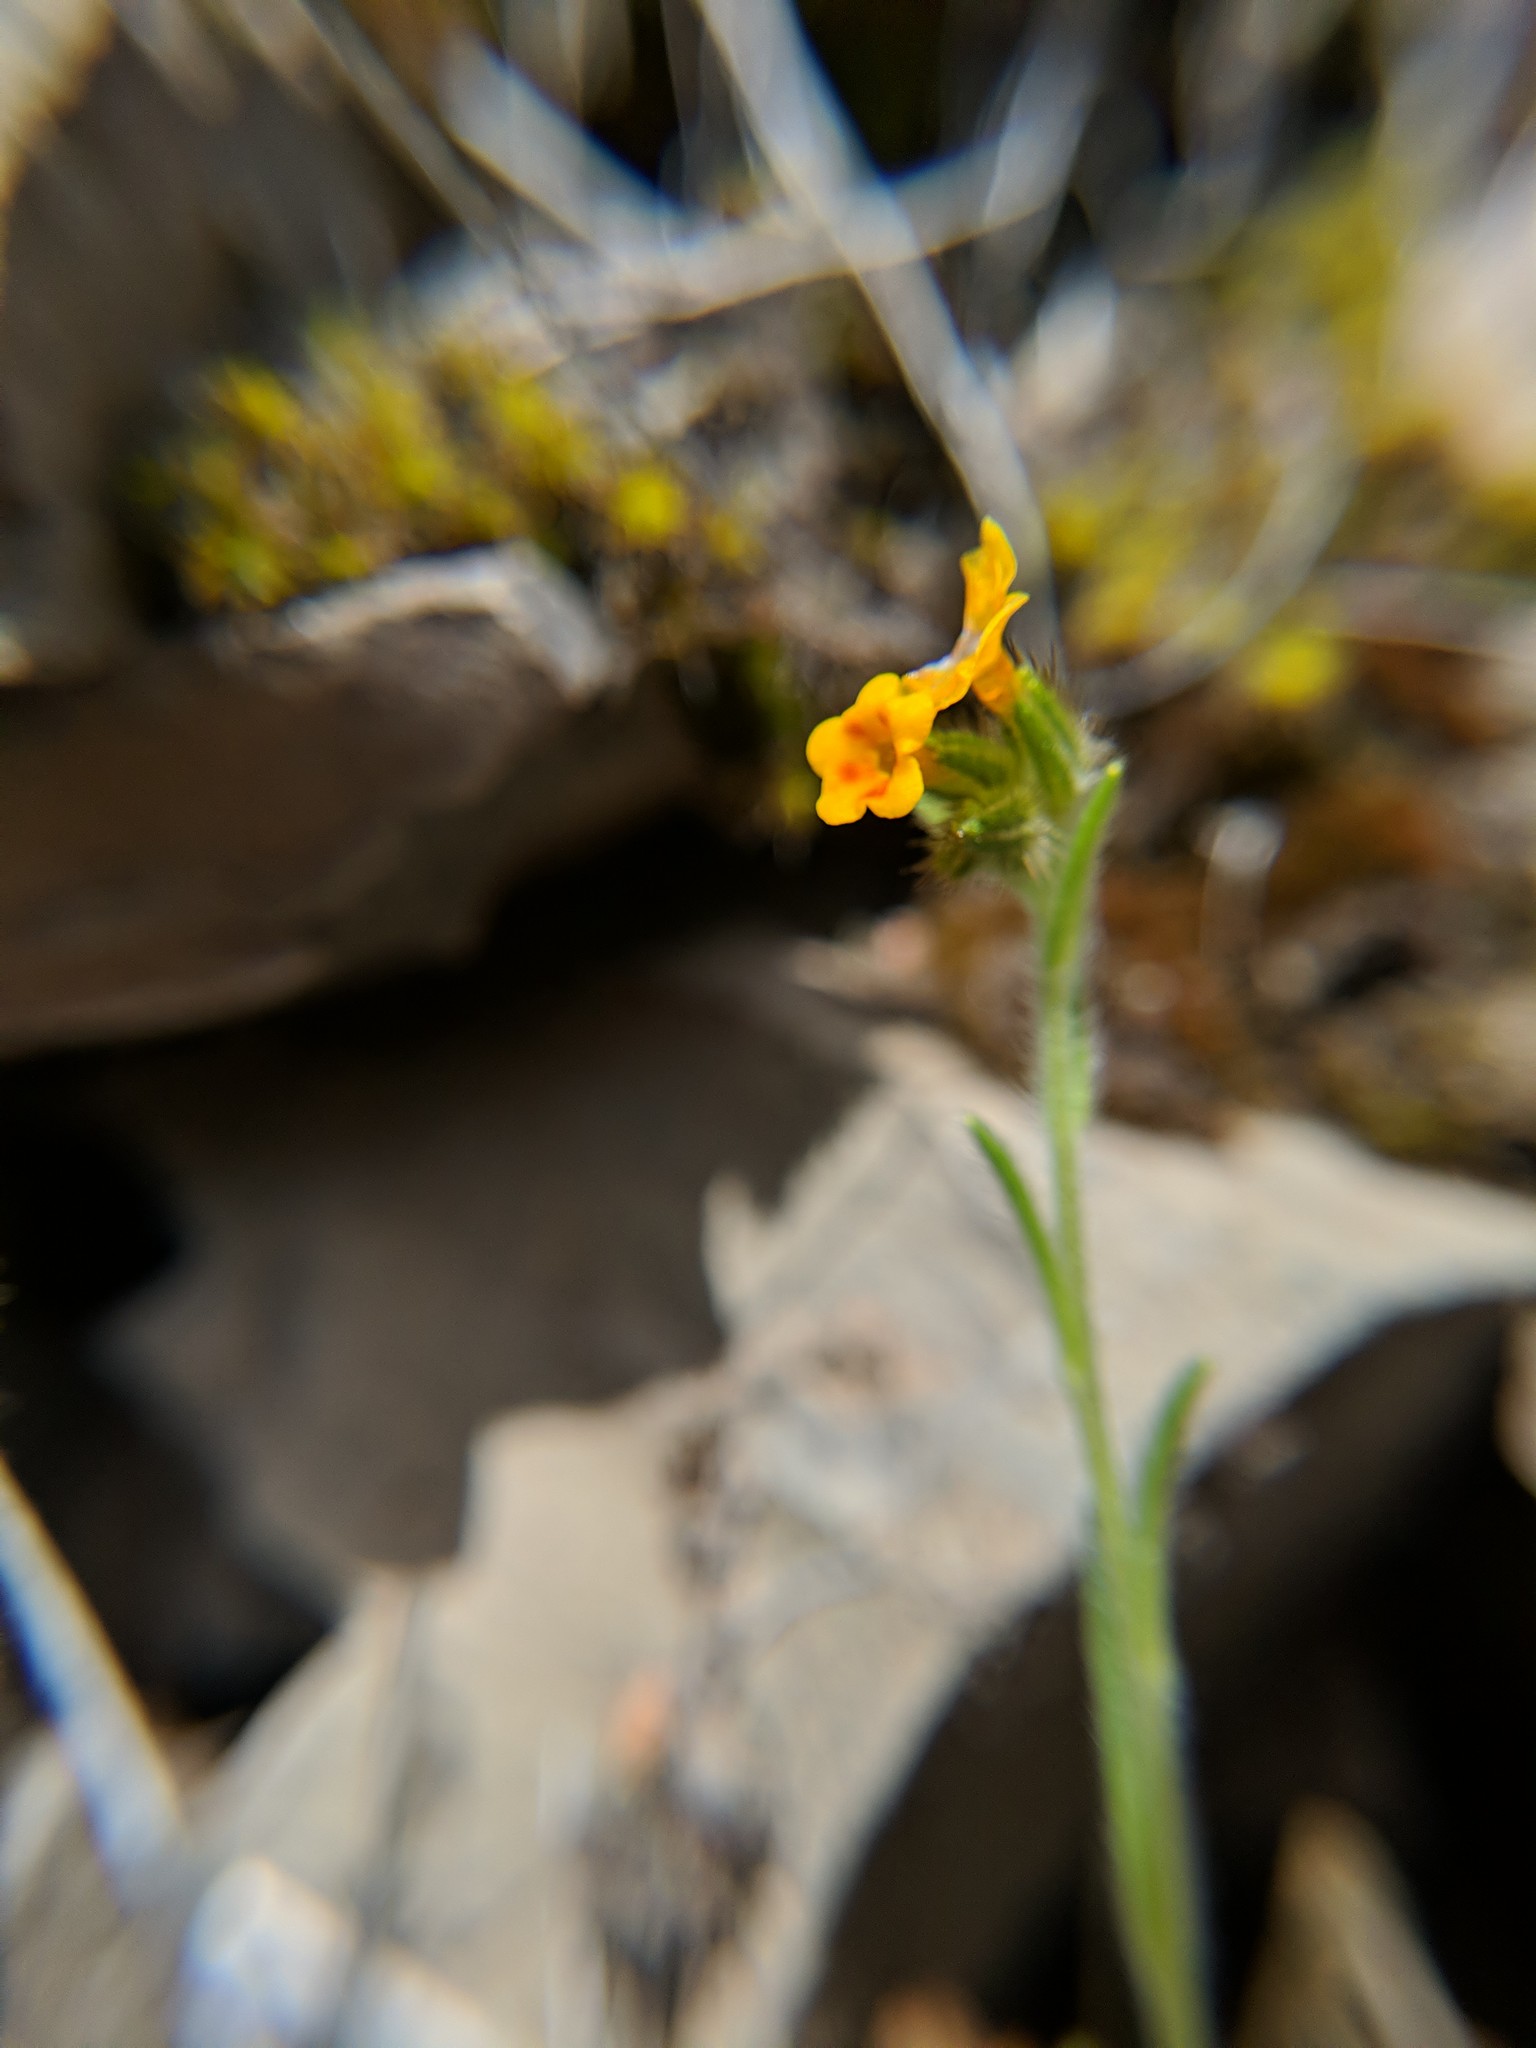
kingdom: Plantae
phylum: Tracheophyta
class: Magnoliopsida
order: Boraginales
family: Boraginaceae
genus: Amsinckia
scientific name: Amsinckia menziesii
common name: Menzies' fiddleneck
